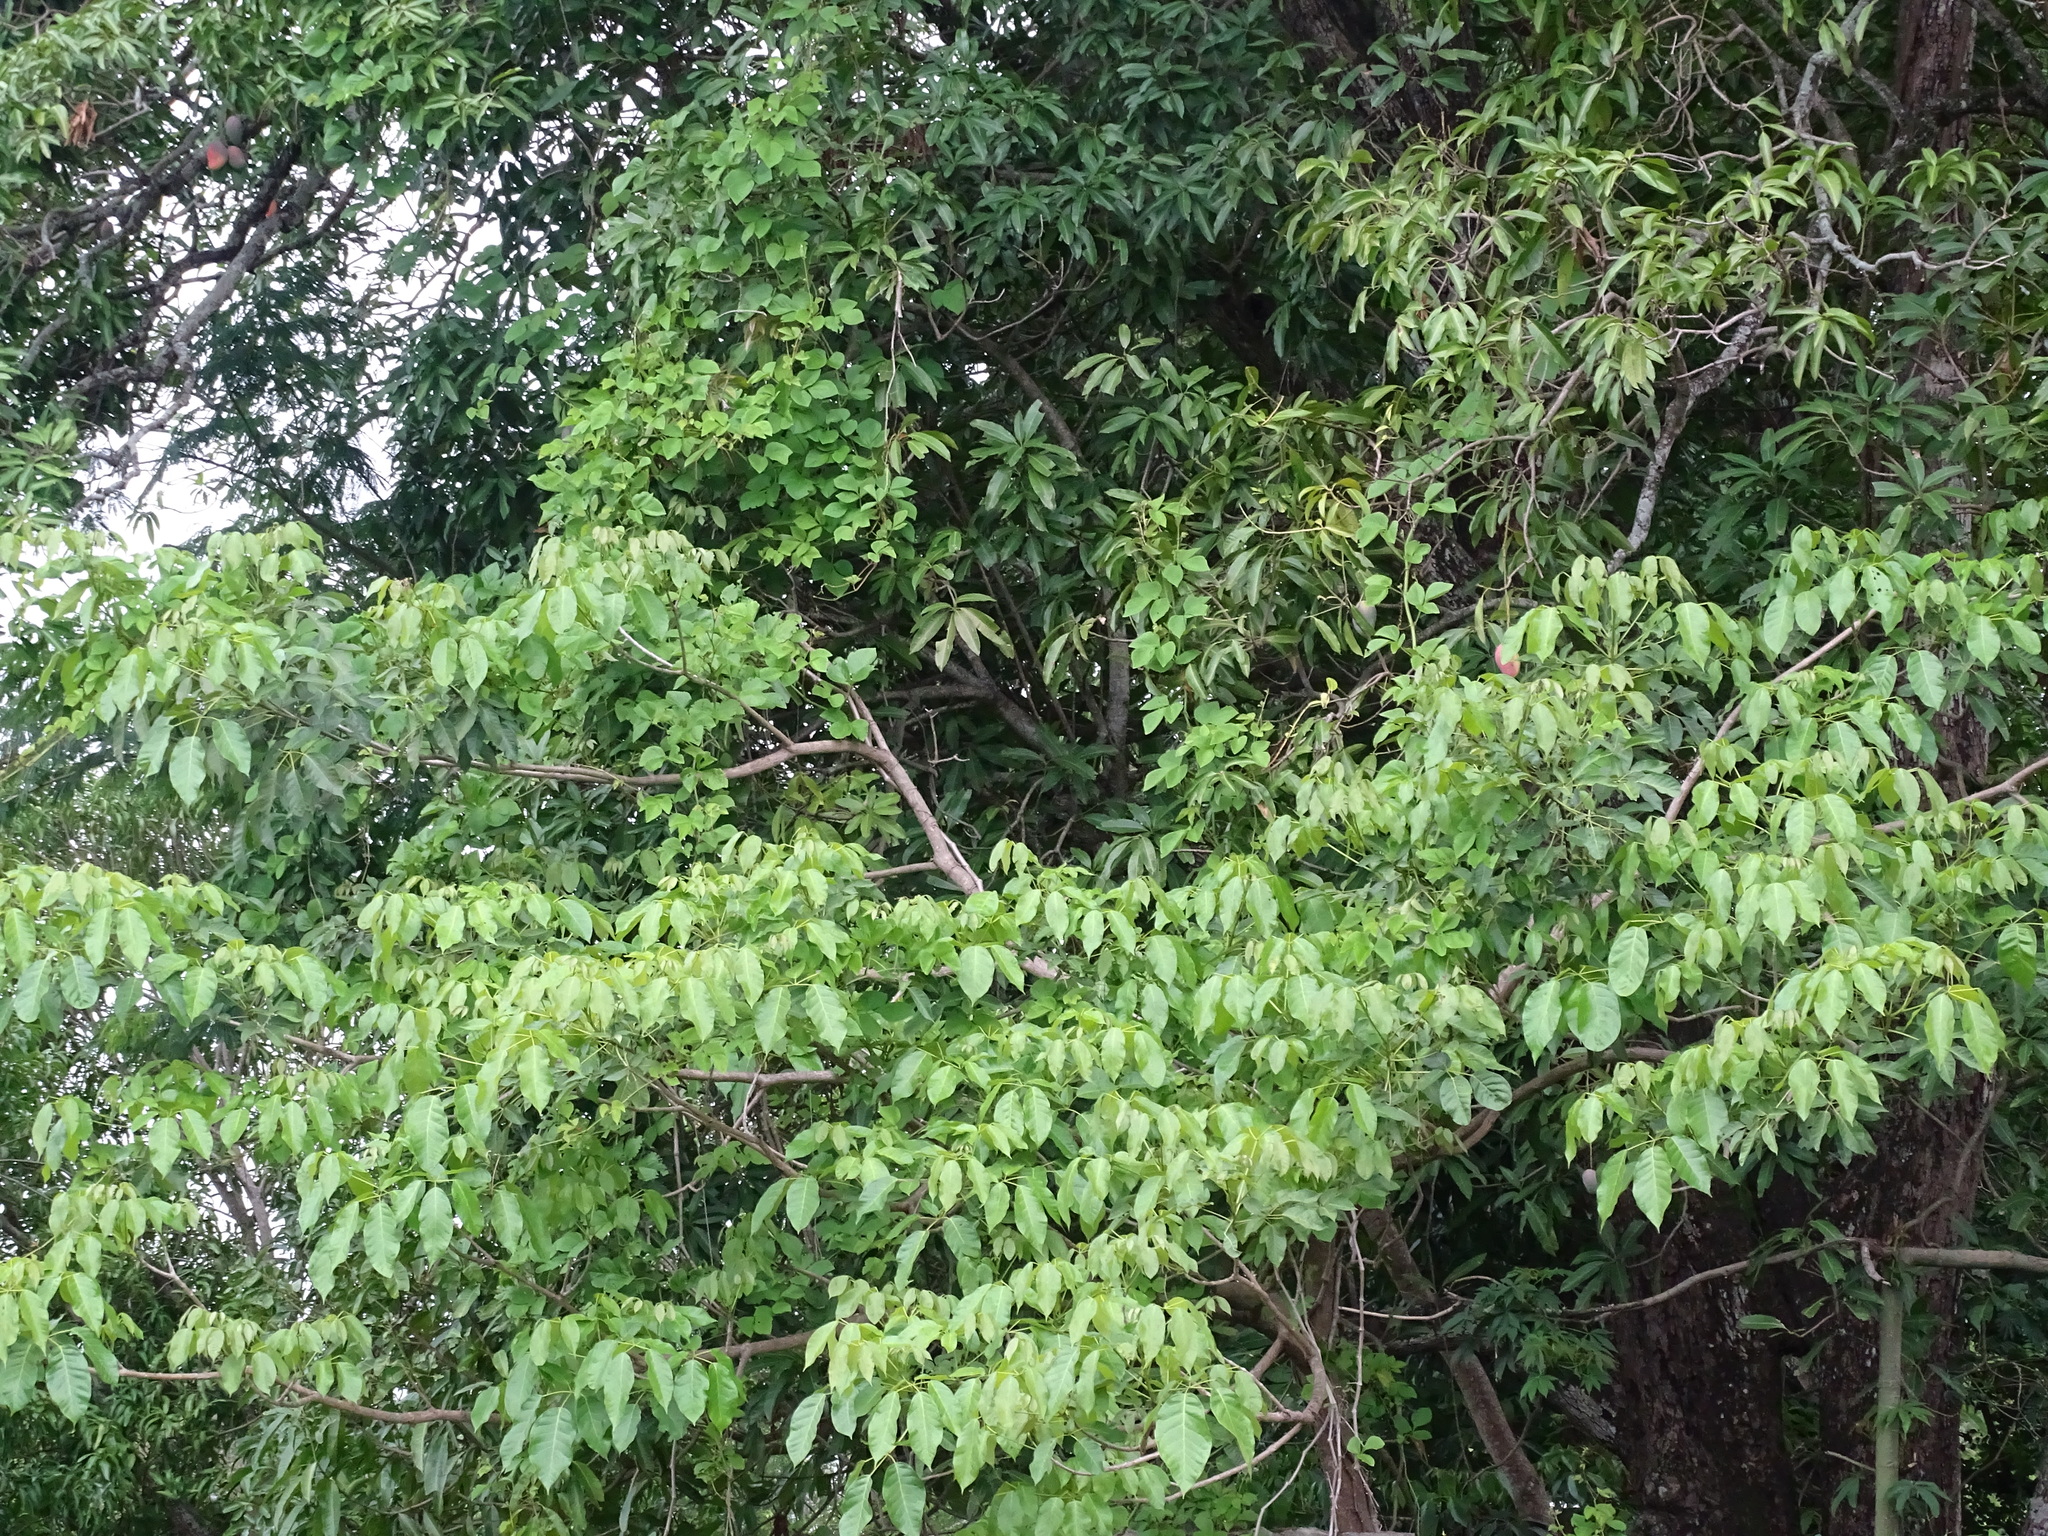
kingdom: Plantae
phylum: Tracheophyta
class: Magnoliopsida
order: Lamiales
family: Bignoniaceae
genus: Tabebuia
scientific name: Tabebuia rosea
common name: Pink poui
